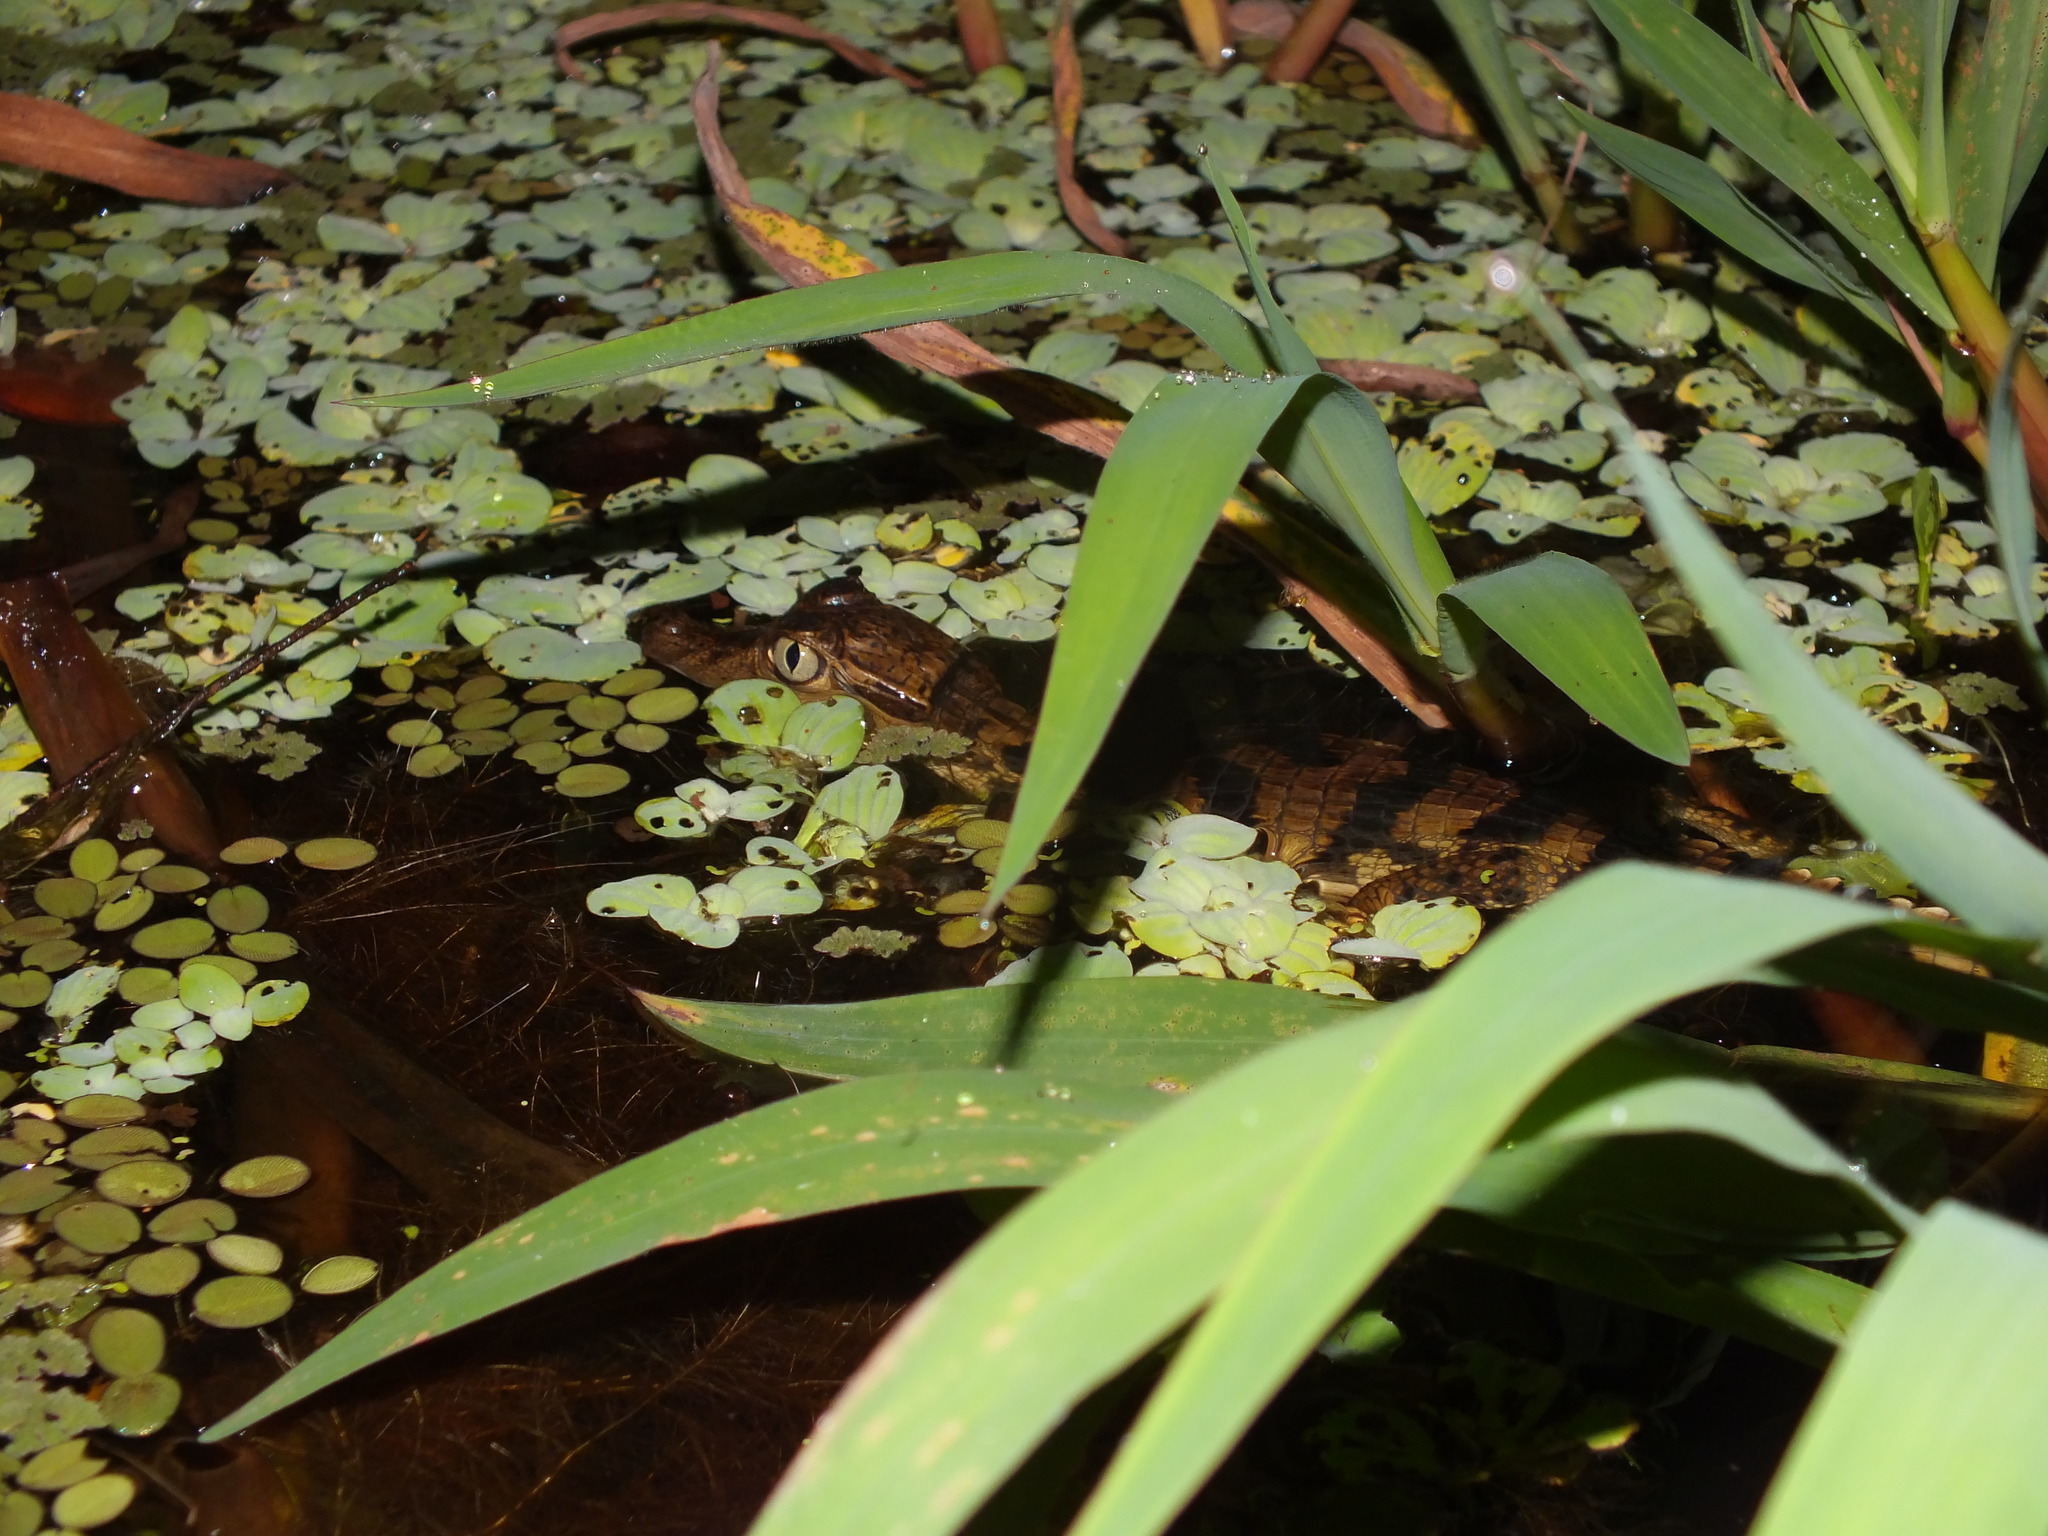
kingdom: Animalia
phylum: Chordata
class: Crocodylia
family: Alligatoridae
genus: Caiman
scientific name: Caiman crocodilus
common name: Common caiman
